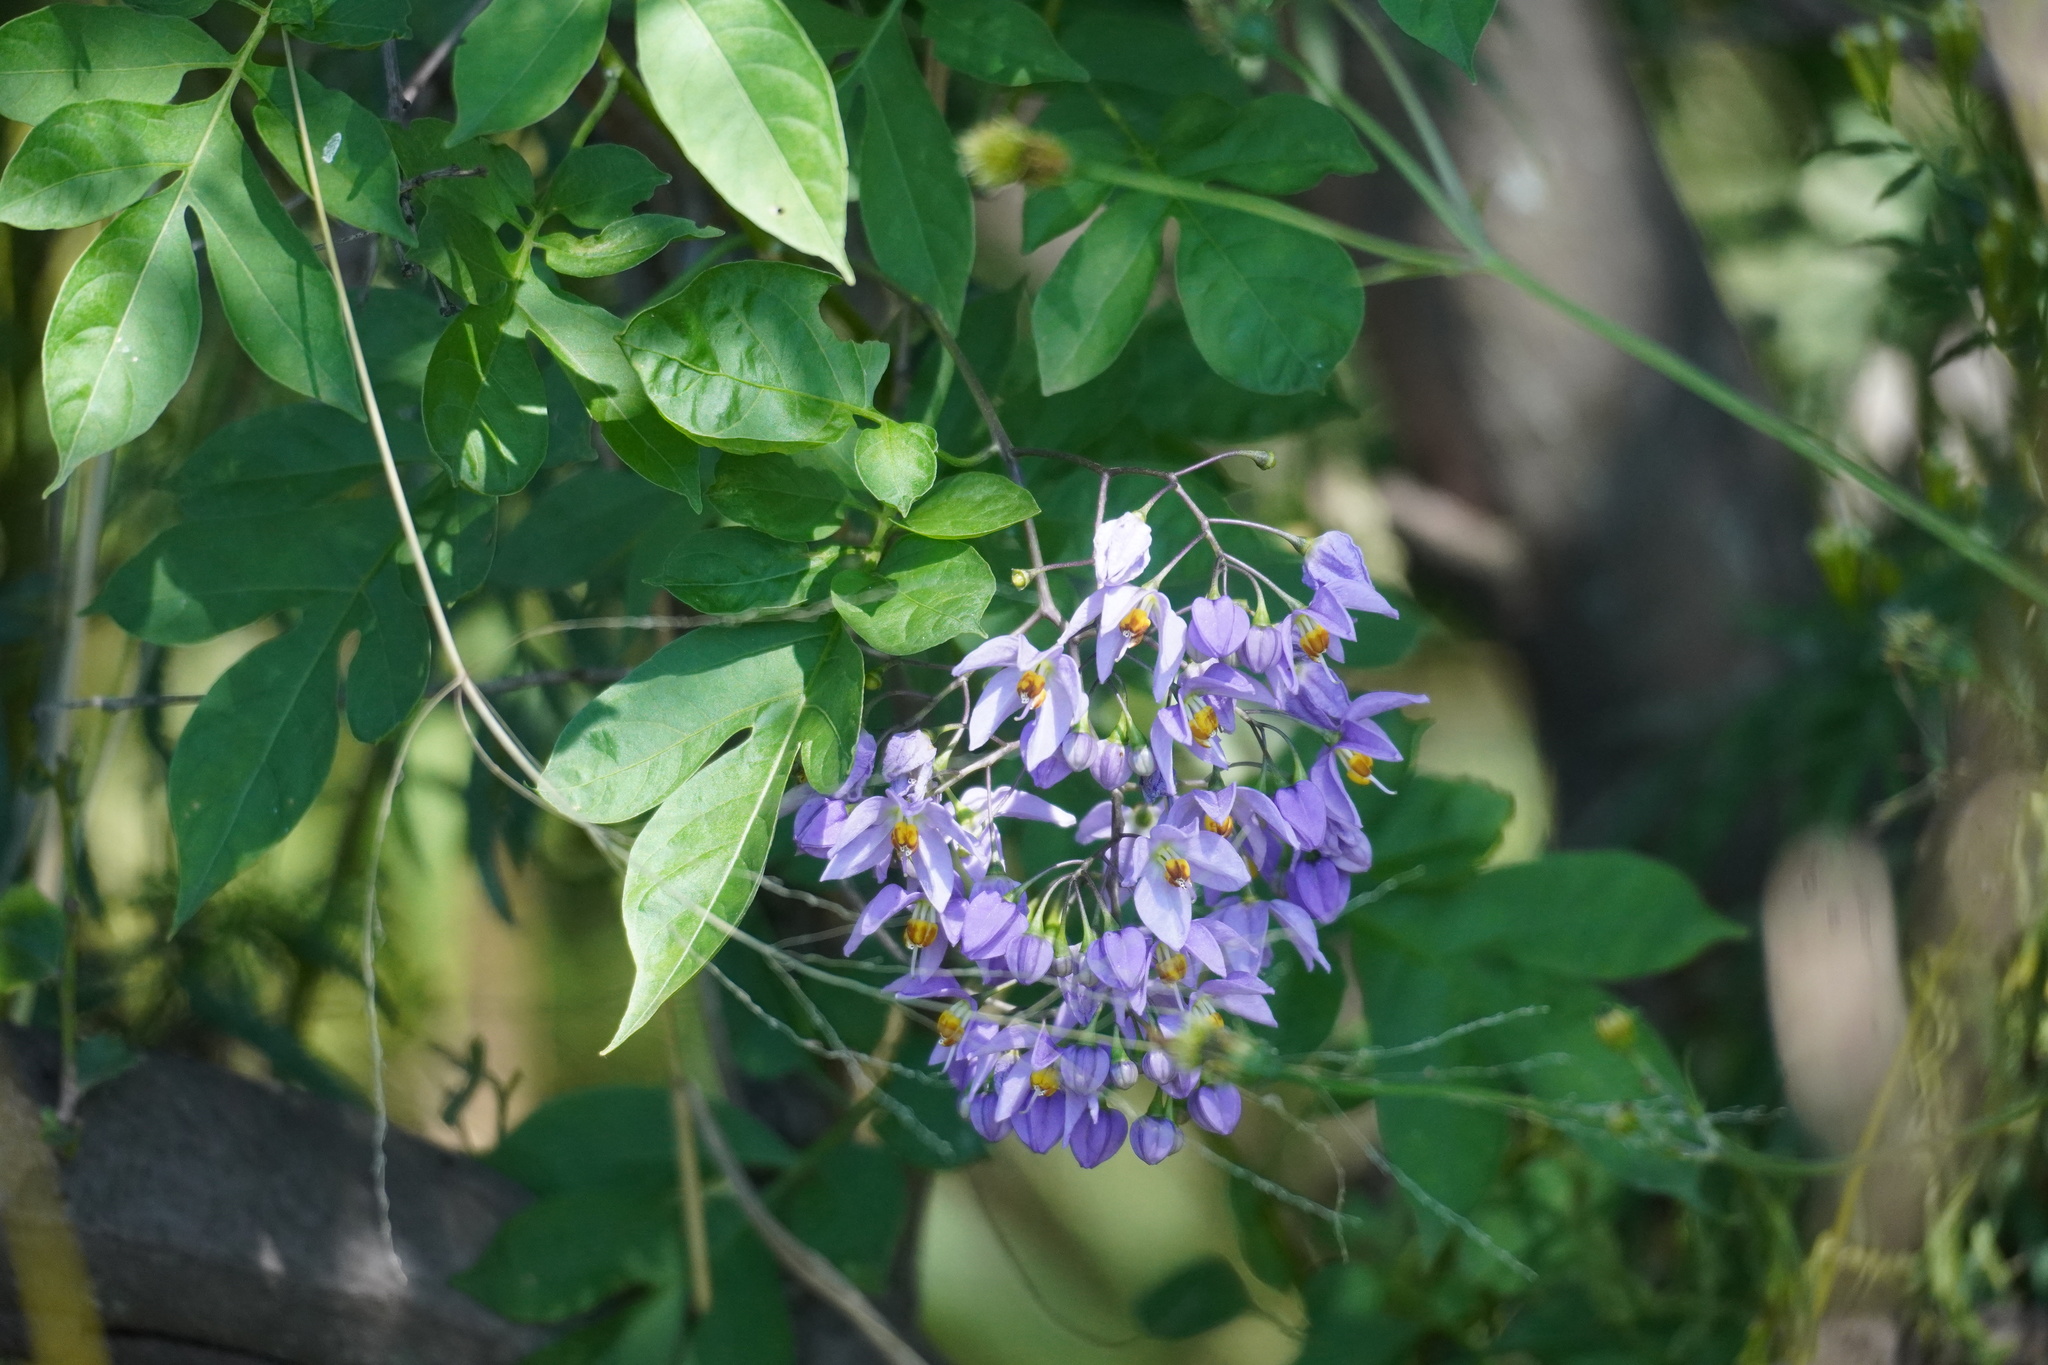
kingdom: Plantae
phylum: Tracheophyta
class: Magnoliopsida
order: Solanales
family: Solanaceae
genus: Solanum
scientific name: Solanum seaforthianum
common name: Brazilian nightshade
